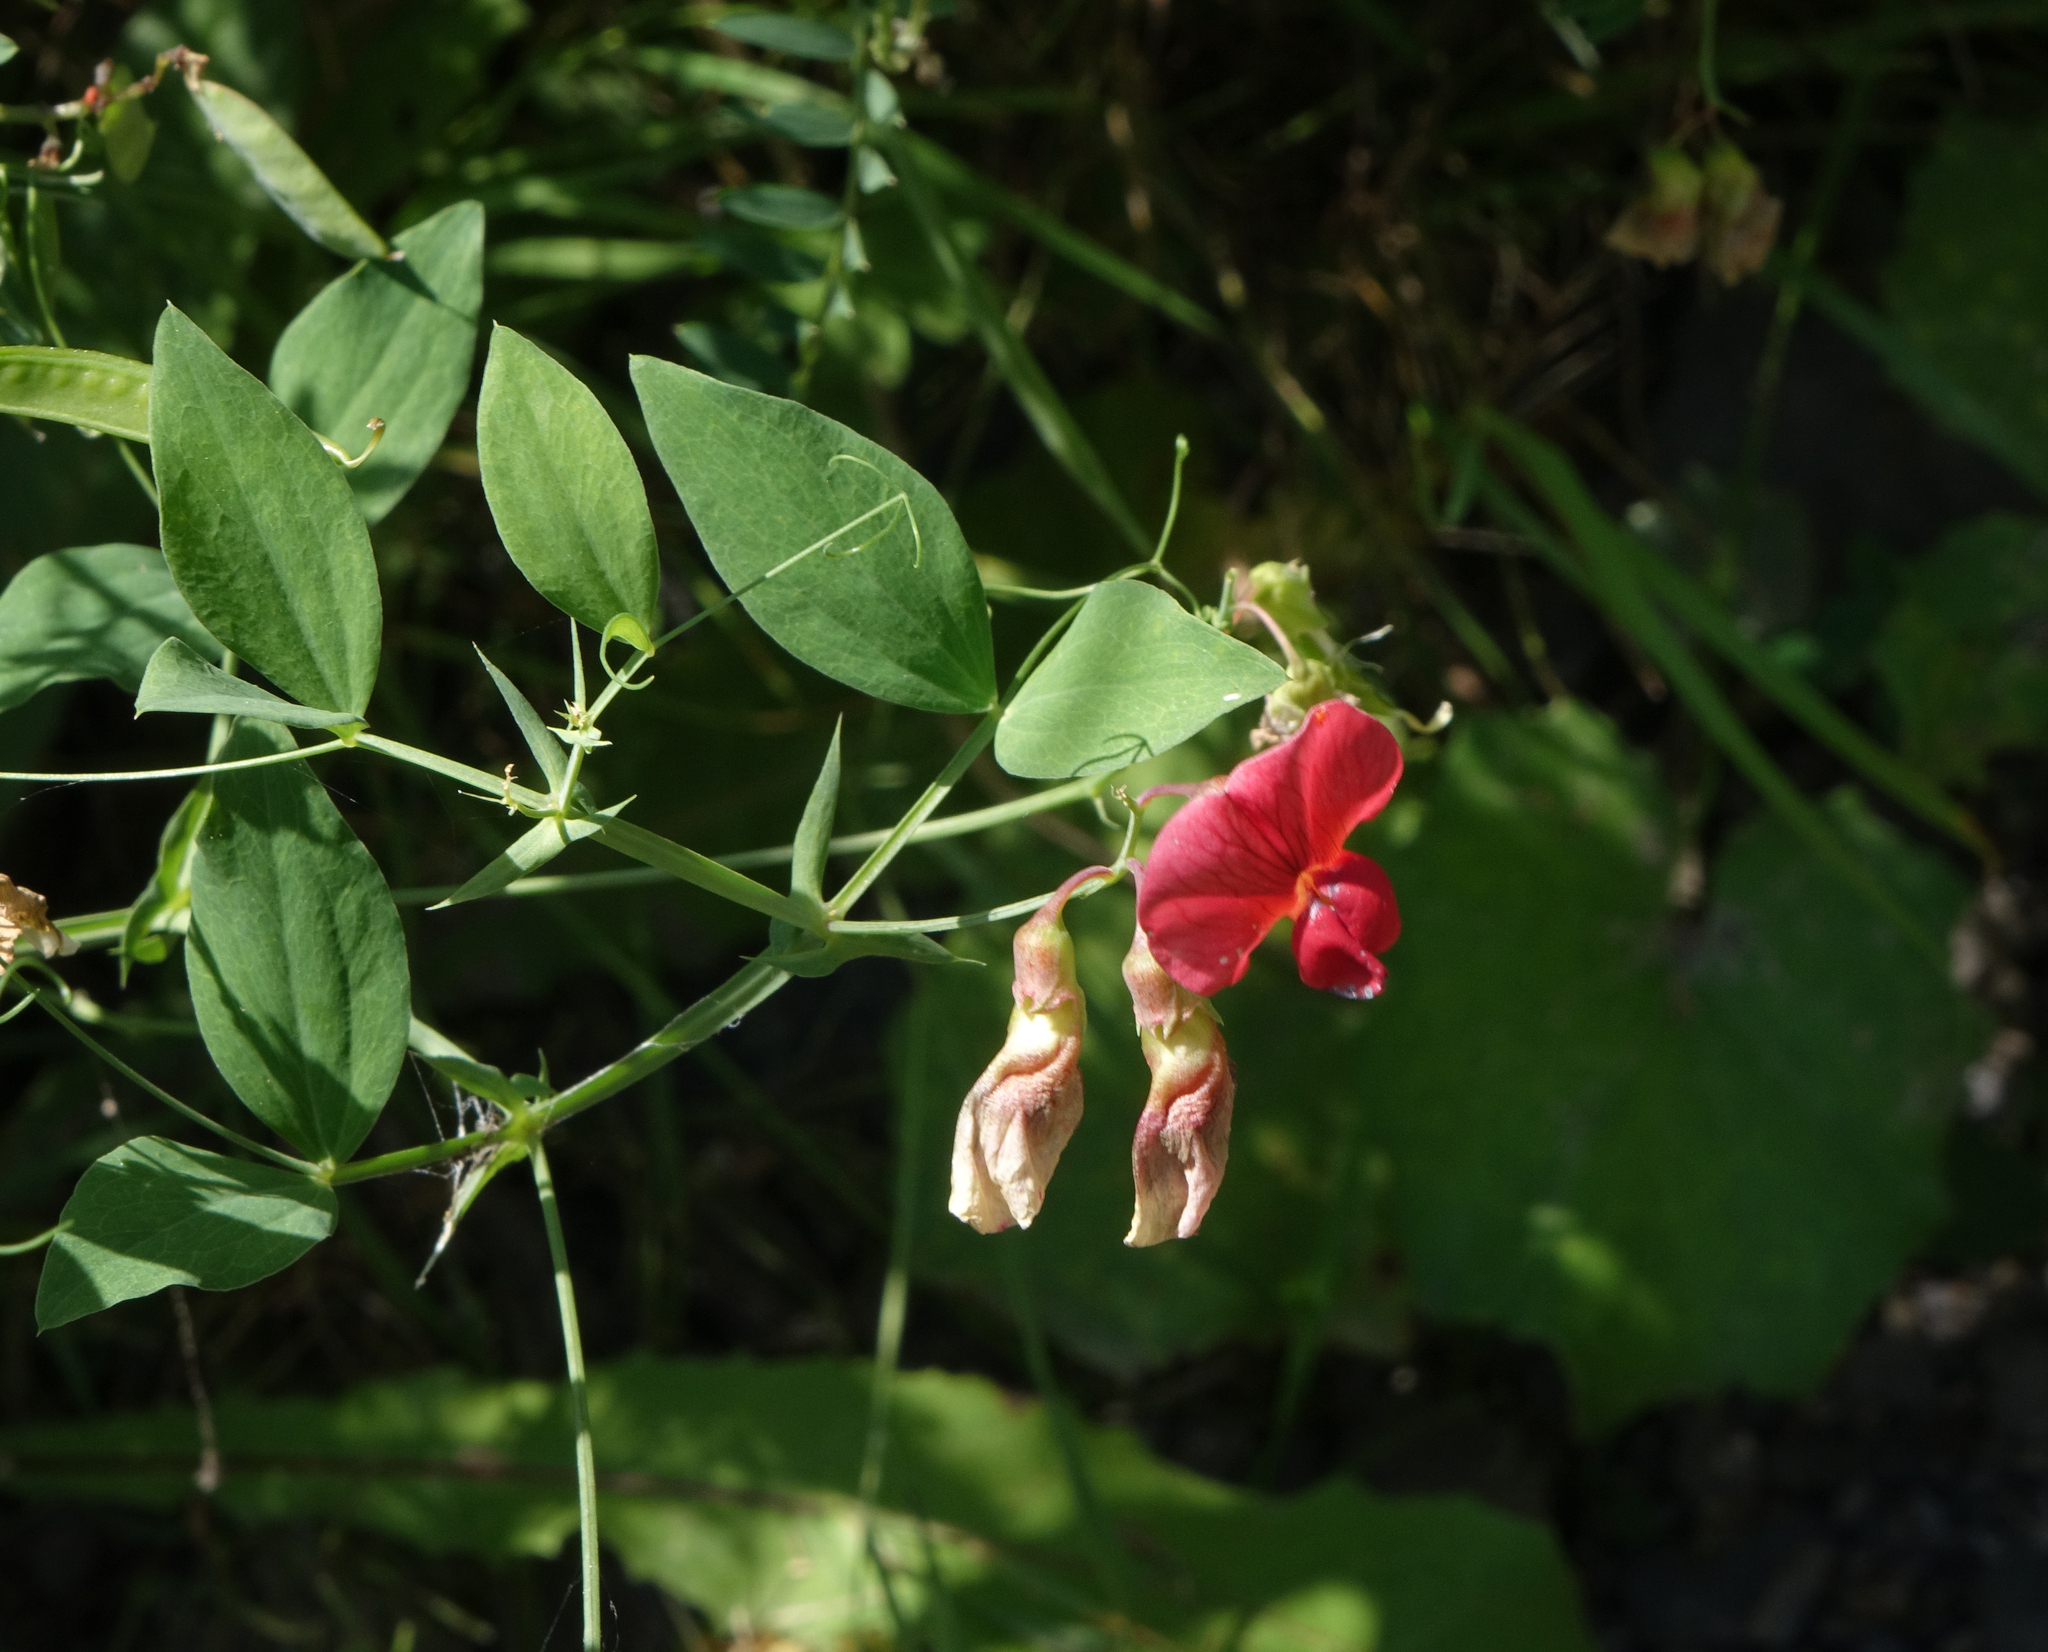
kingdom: Plantae
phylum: Tracheophyta
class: Magnoliopsida
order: Fabales
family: Fabaceae
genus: Lathyrus
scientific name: Lathyrus miniatus
